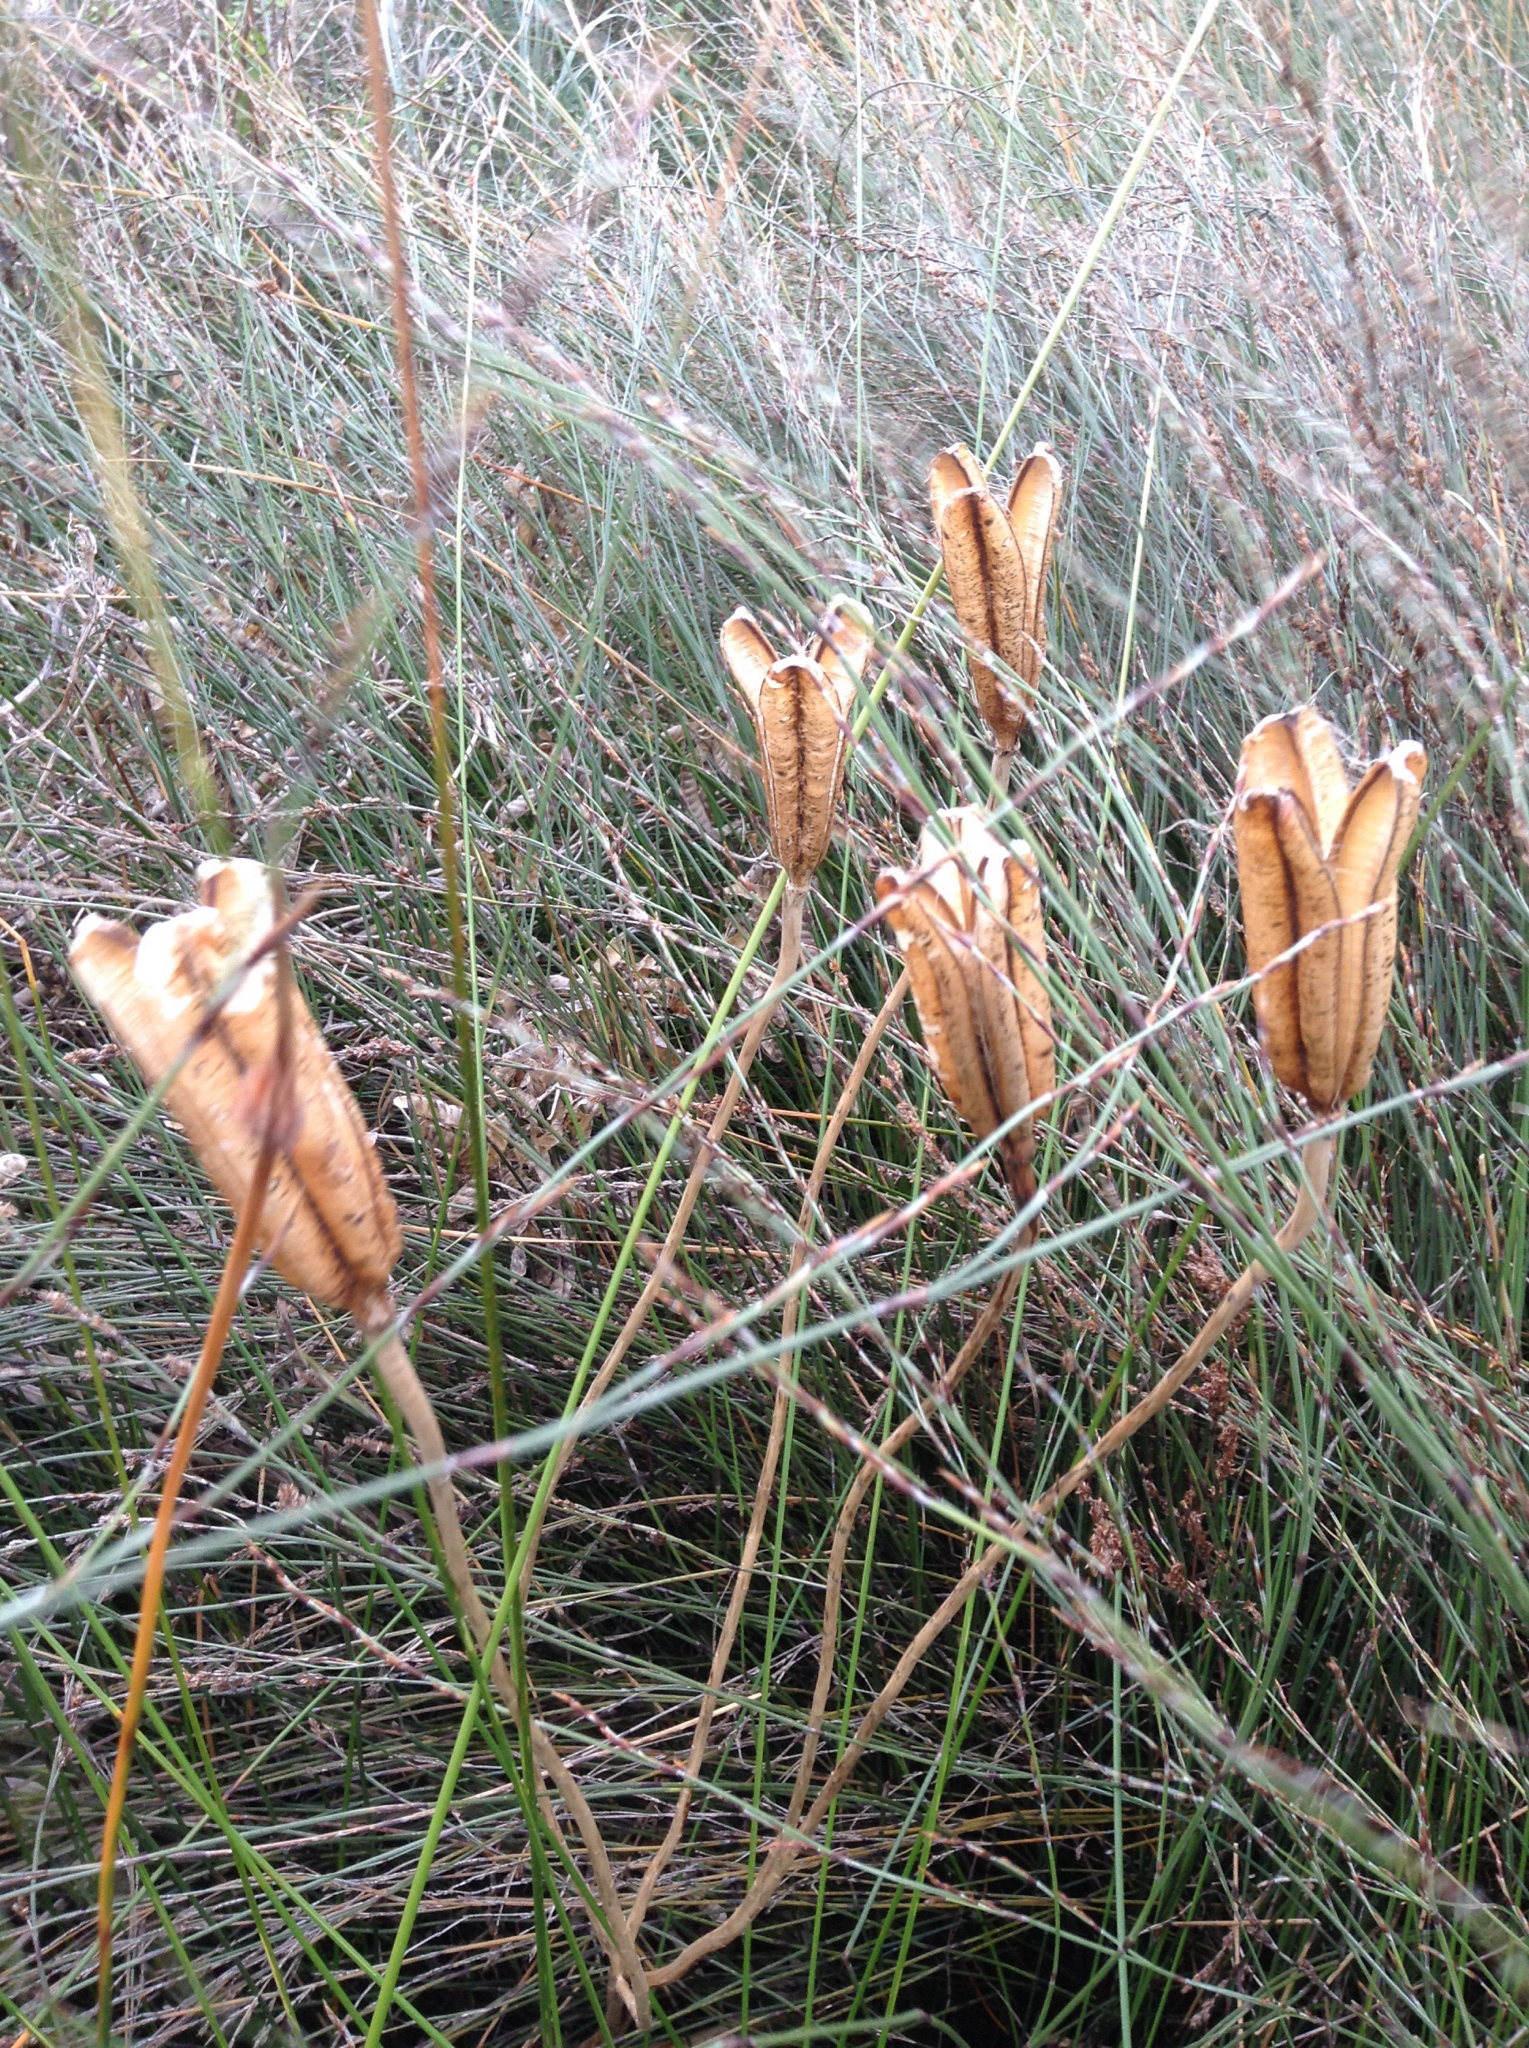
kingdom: Plantae
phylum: Tracheophyta
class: Liliopsida
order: Liliales
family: Liliaceae
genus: Lilium
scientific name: Lilium formosanum
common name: Formosa lily
